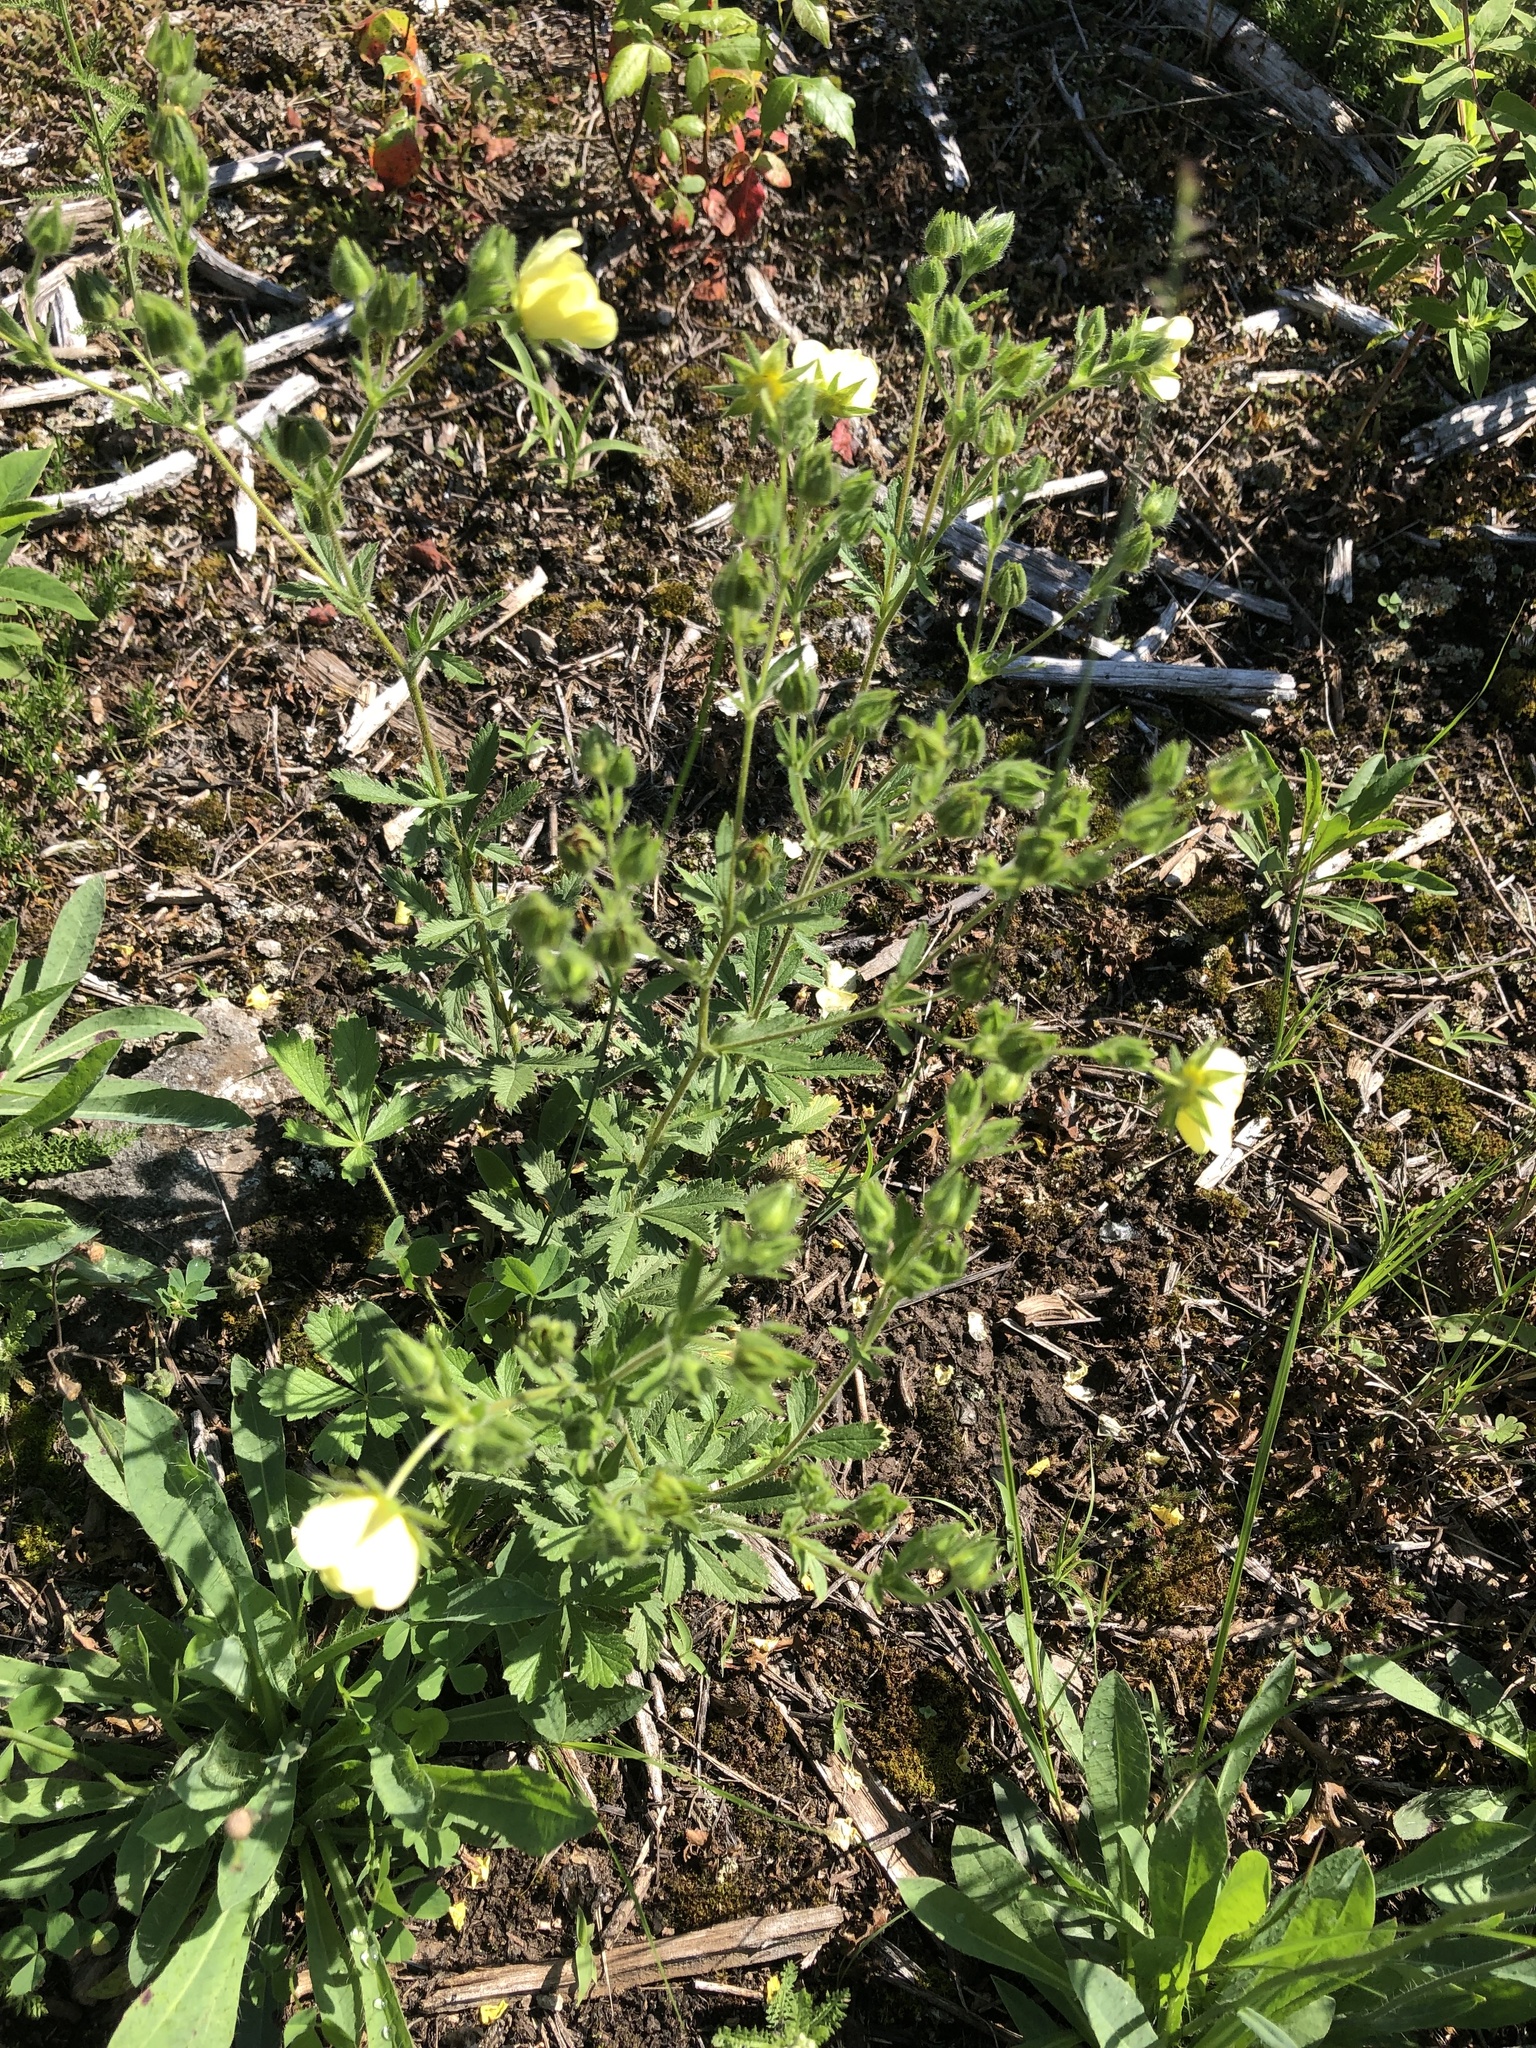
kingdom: Plantae
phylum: Tracheophyta
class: Magnoliopsida
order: Rosales
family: Rosaceae
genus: Potentilla
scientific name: Potentilla recta
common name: Sulphur cinquefoil
